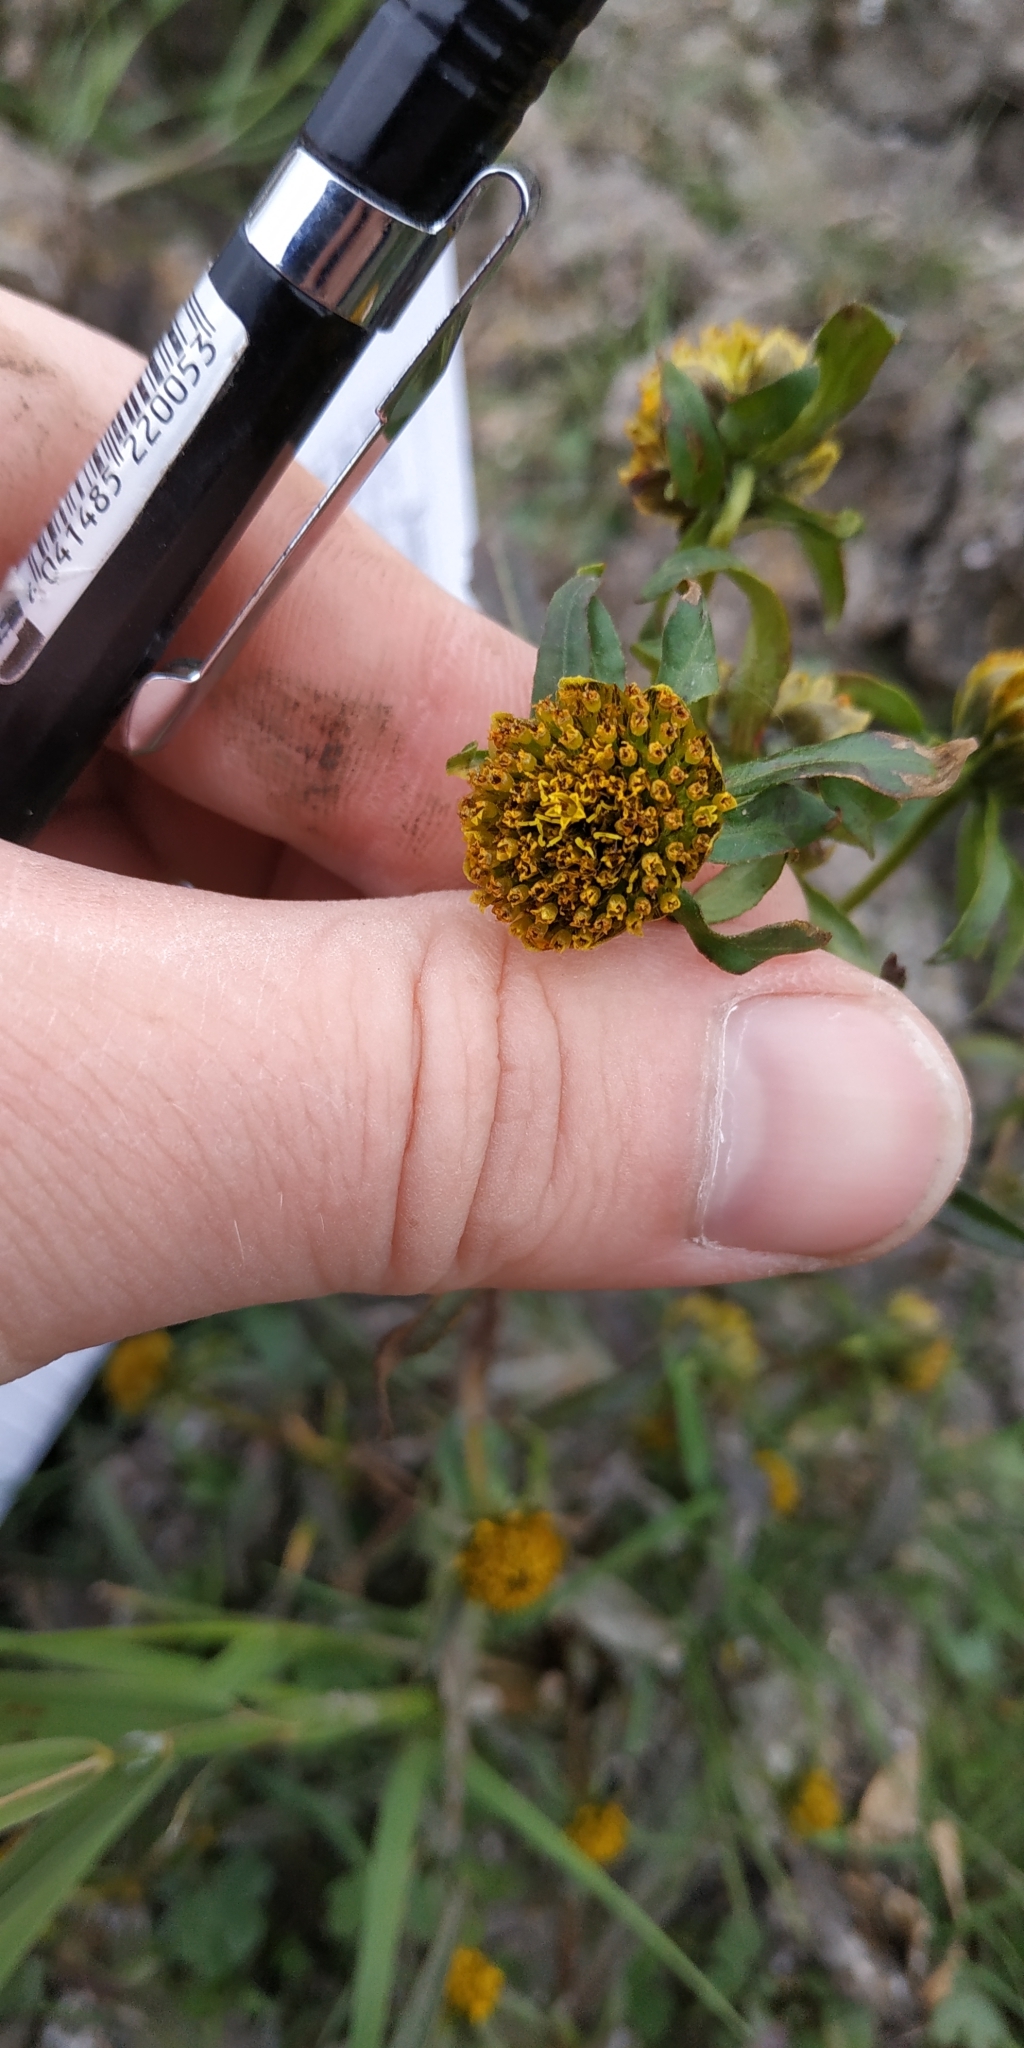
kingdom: Plantae
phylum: Tracheophyta
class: Magnoliopsida
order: Asterales
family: Asteraceae
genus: Bidens
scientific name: Bidens cernua
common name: Nodding bur-marigold
